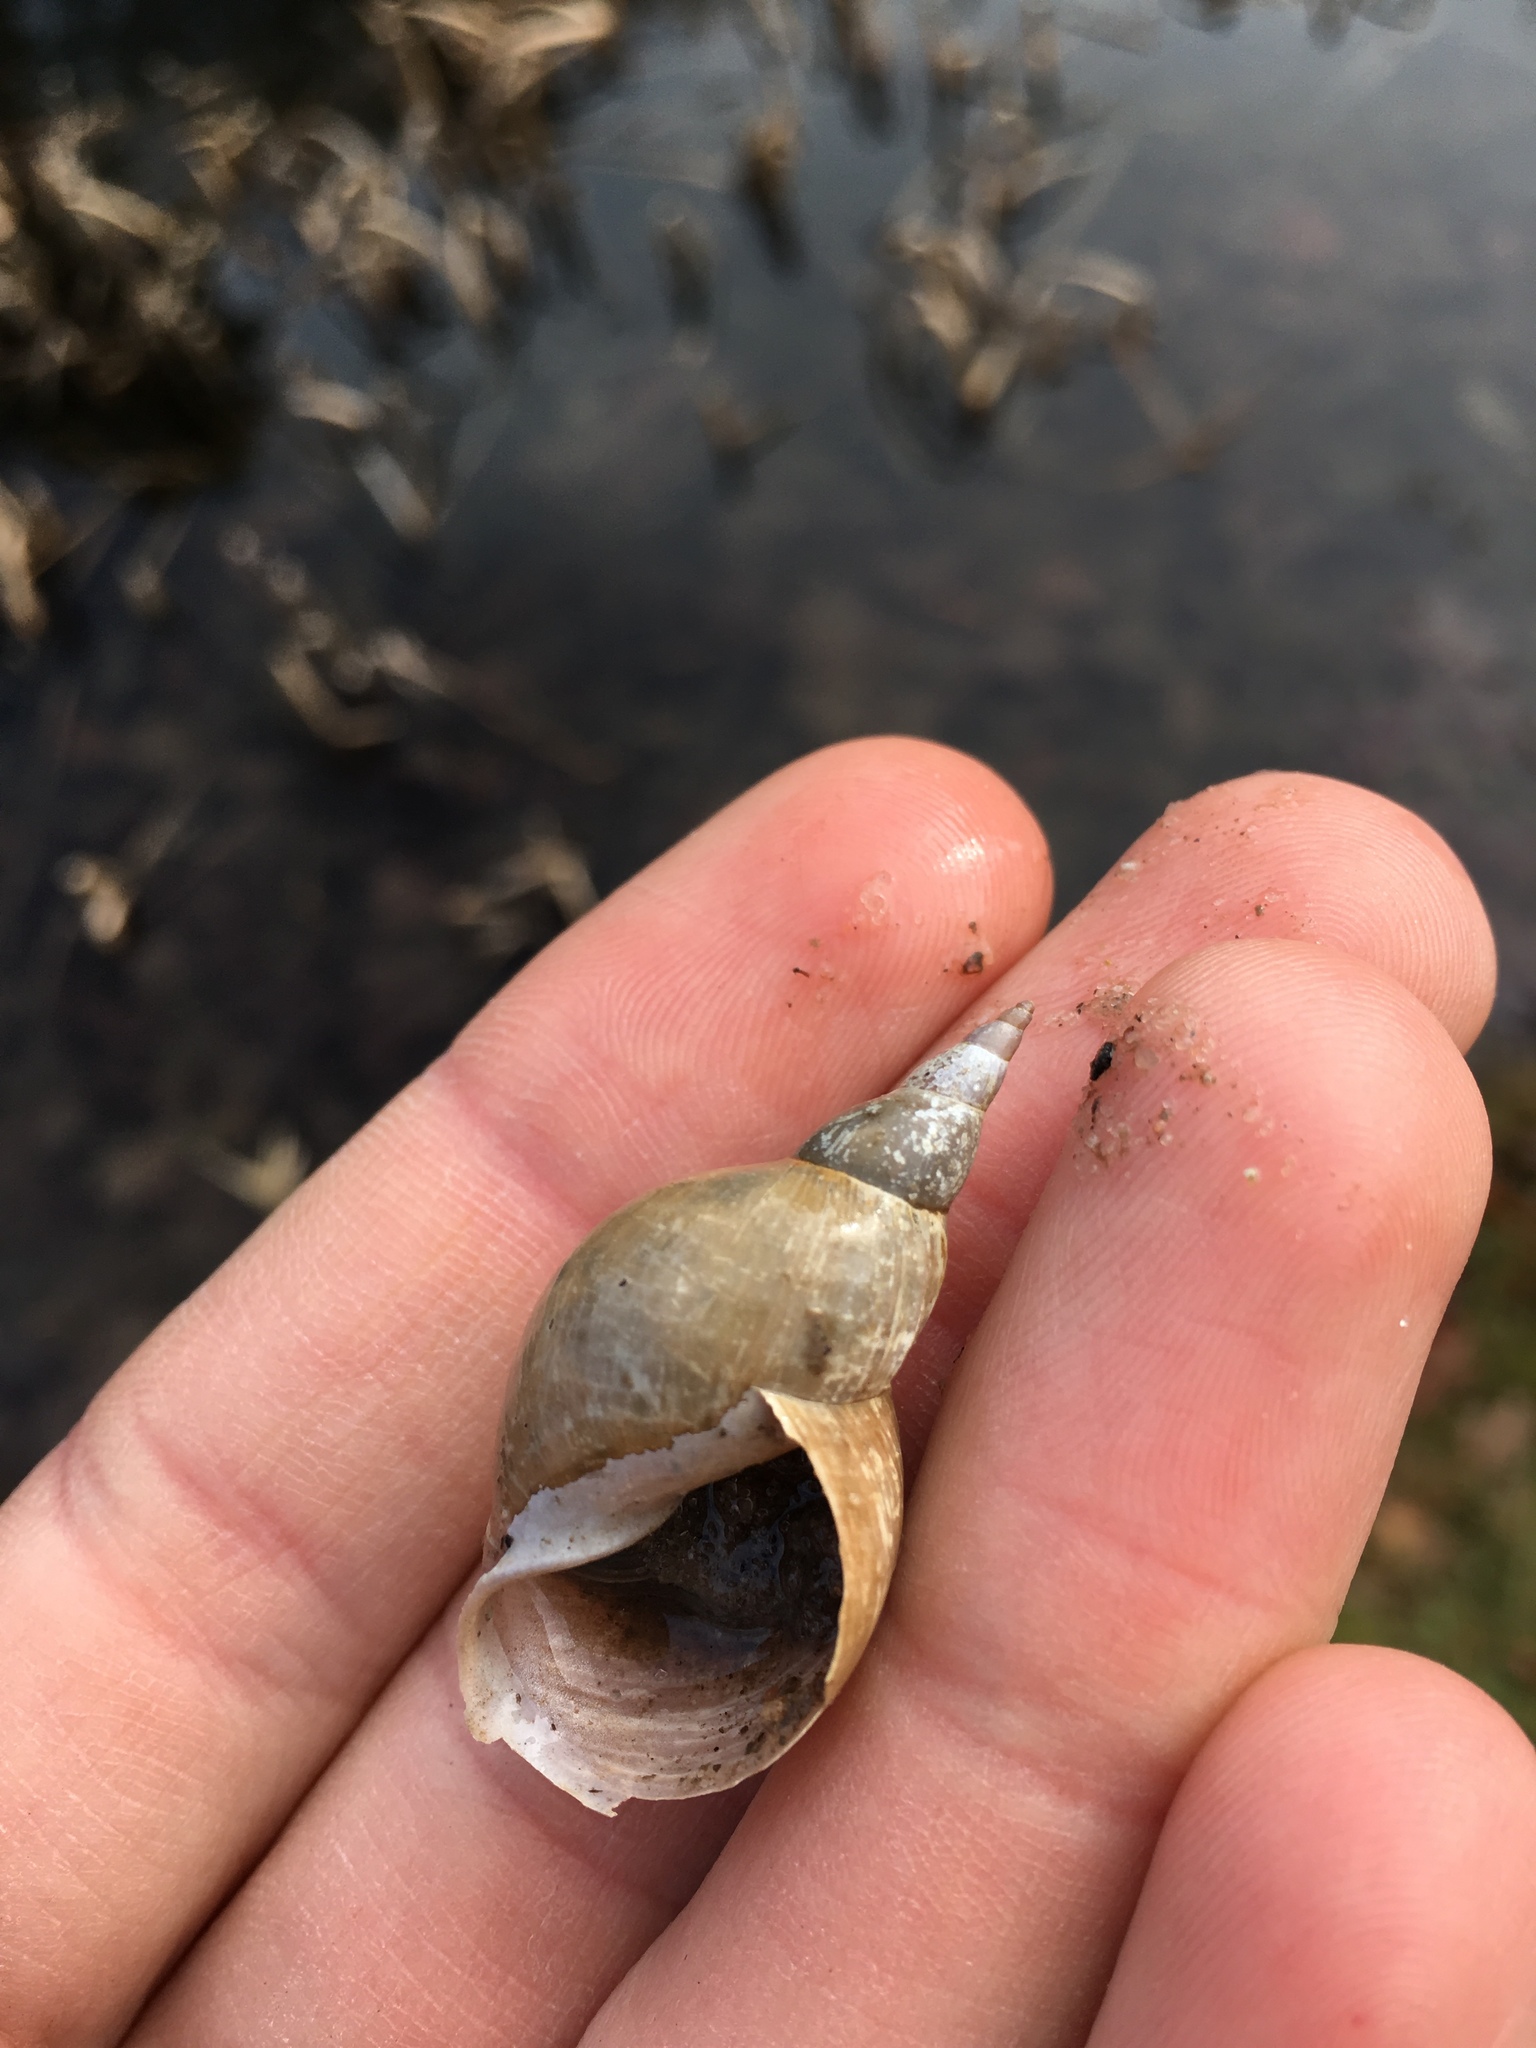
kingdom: Animalia
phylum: Mollusca
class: Gastropoda
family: Lymnaeidae
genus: Lymnaea
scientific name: Lymnaea stagnalis
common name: Great pond snail
